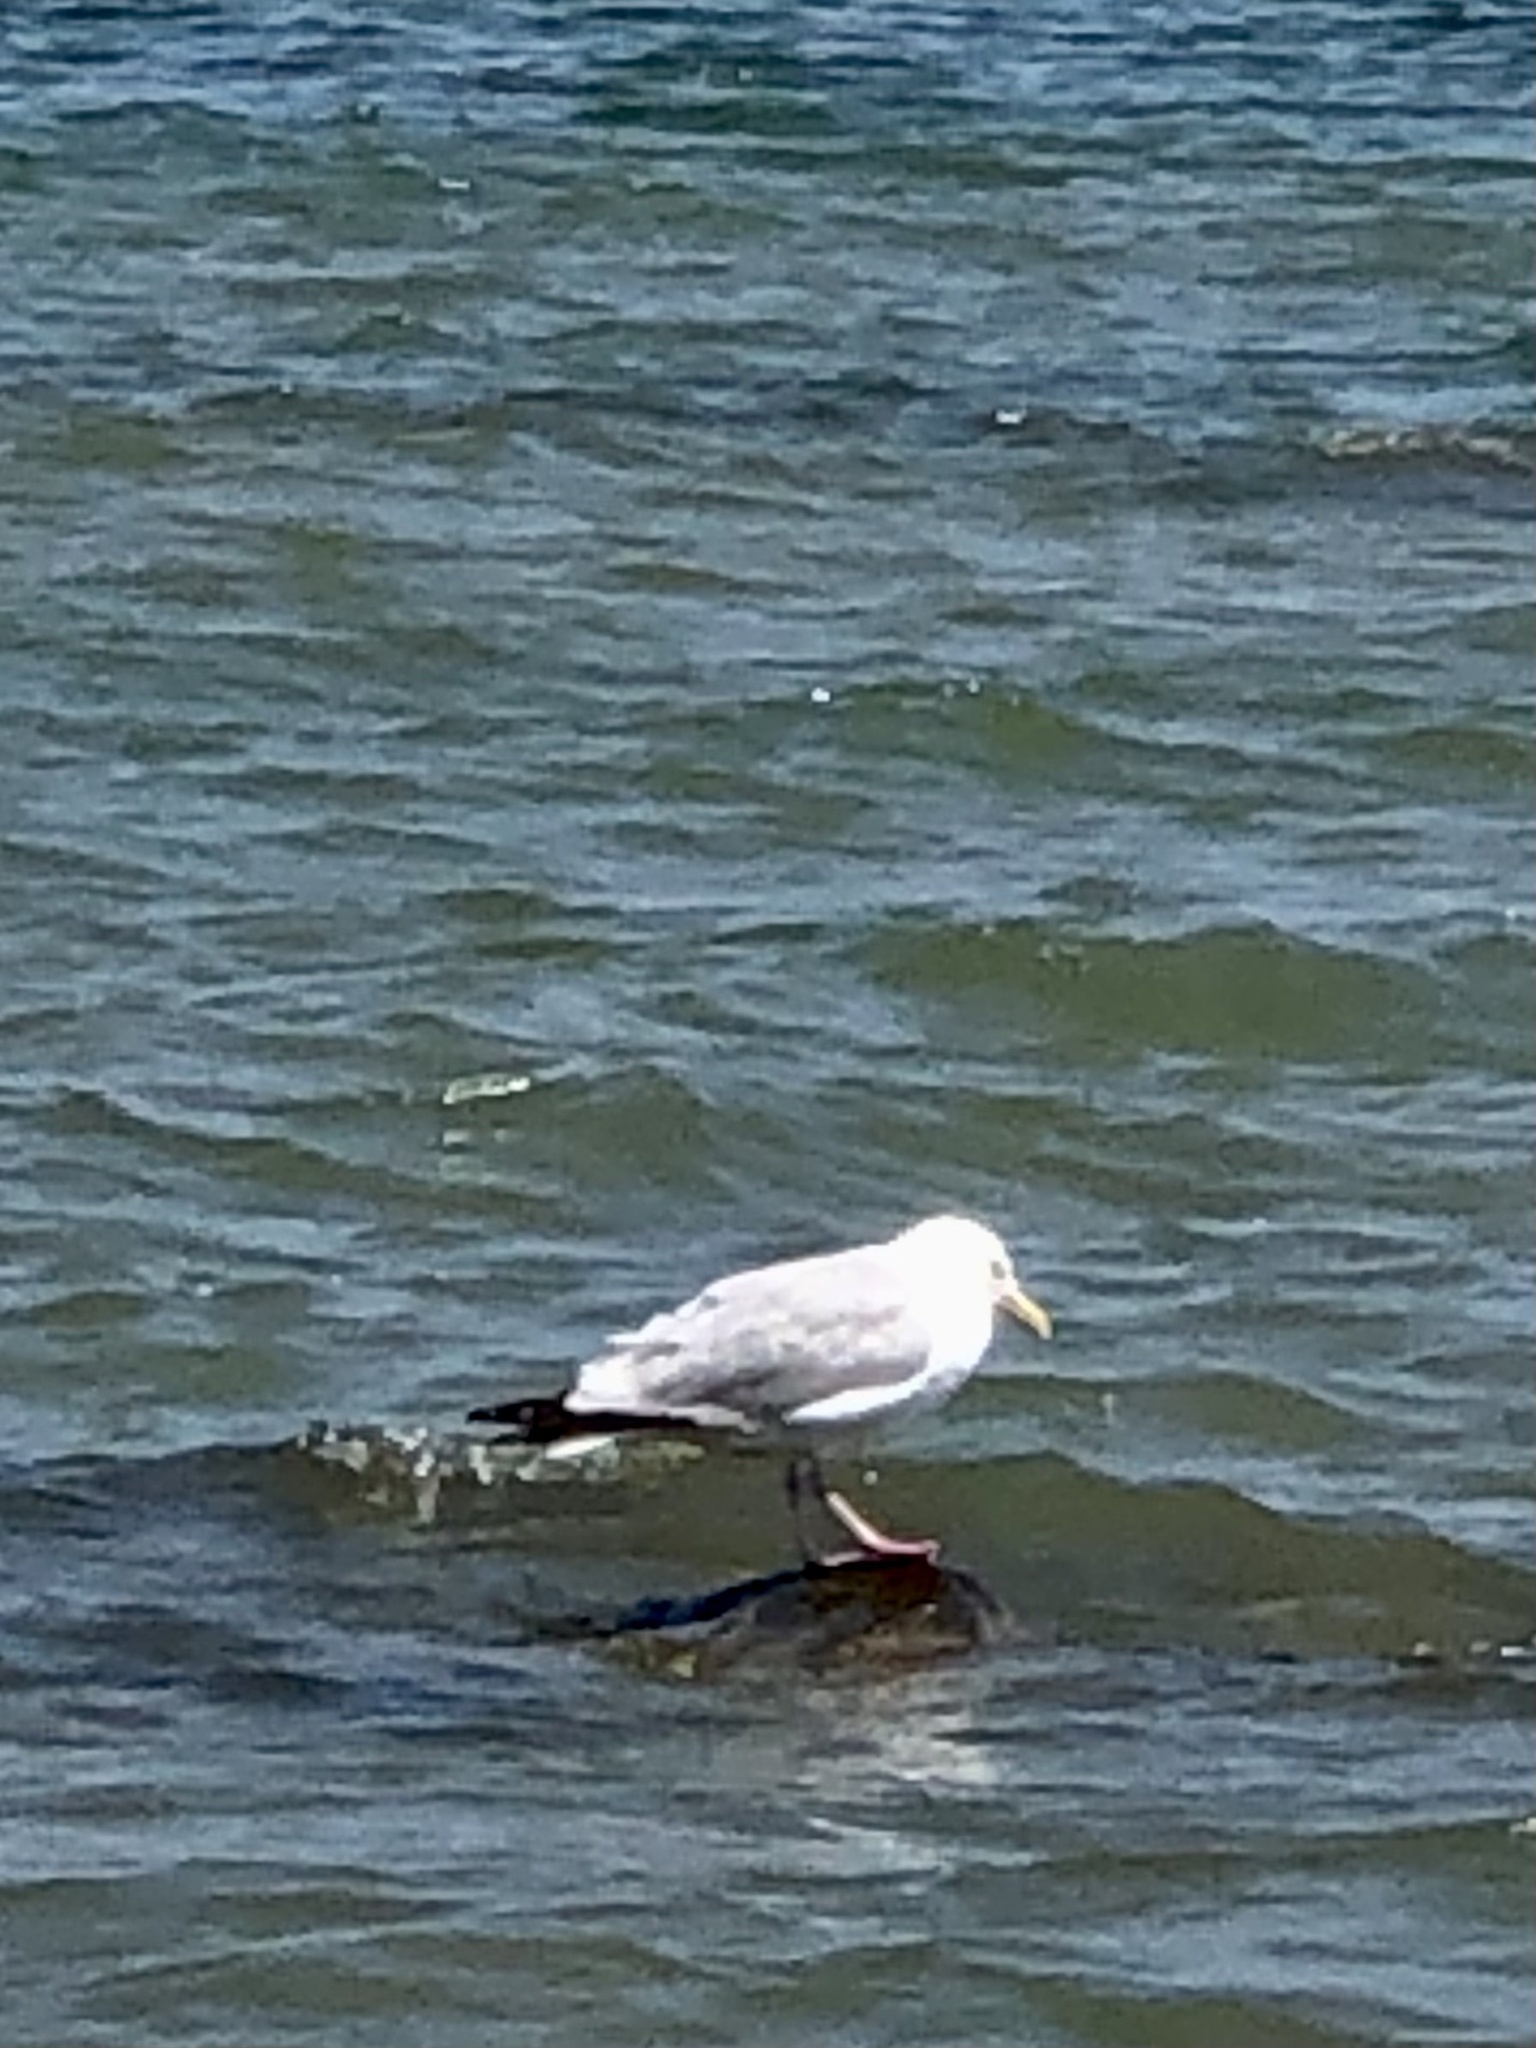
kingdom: Animalia
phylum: Chordata
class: Aves
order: Charadriiformes
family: Laridae
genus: Larus
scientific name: Larus argentatus
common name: Herring gull
